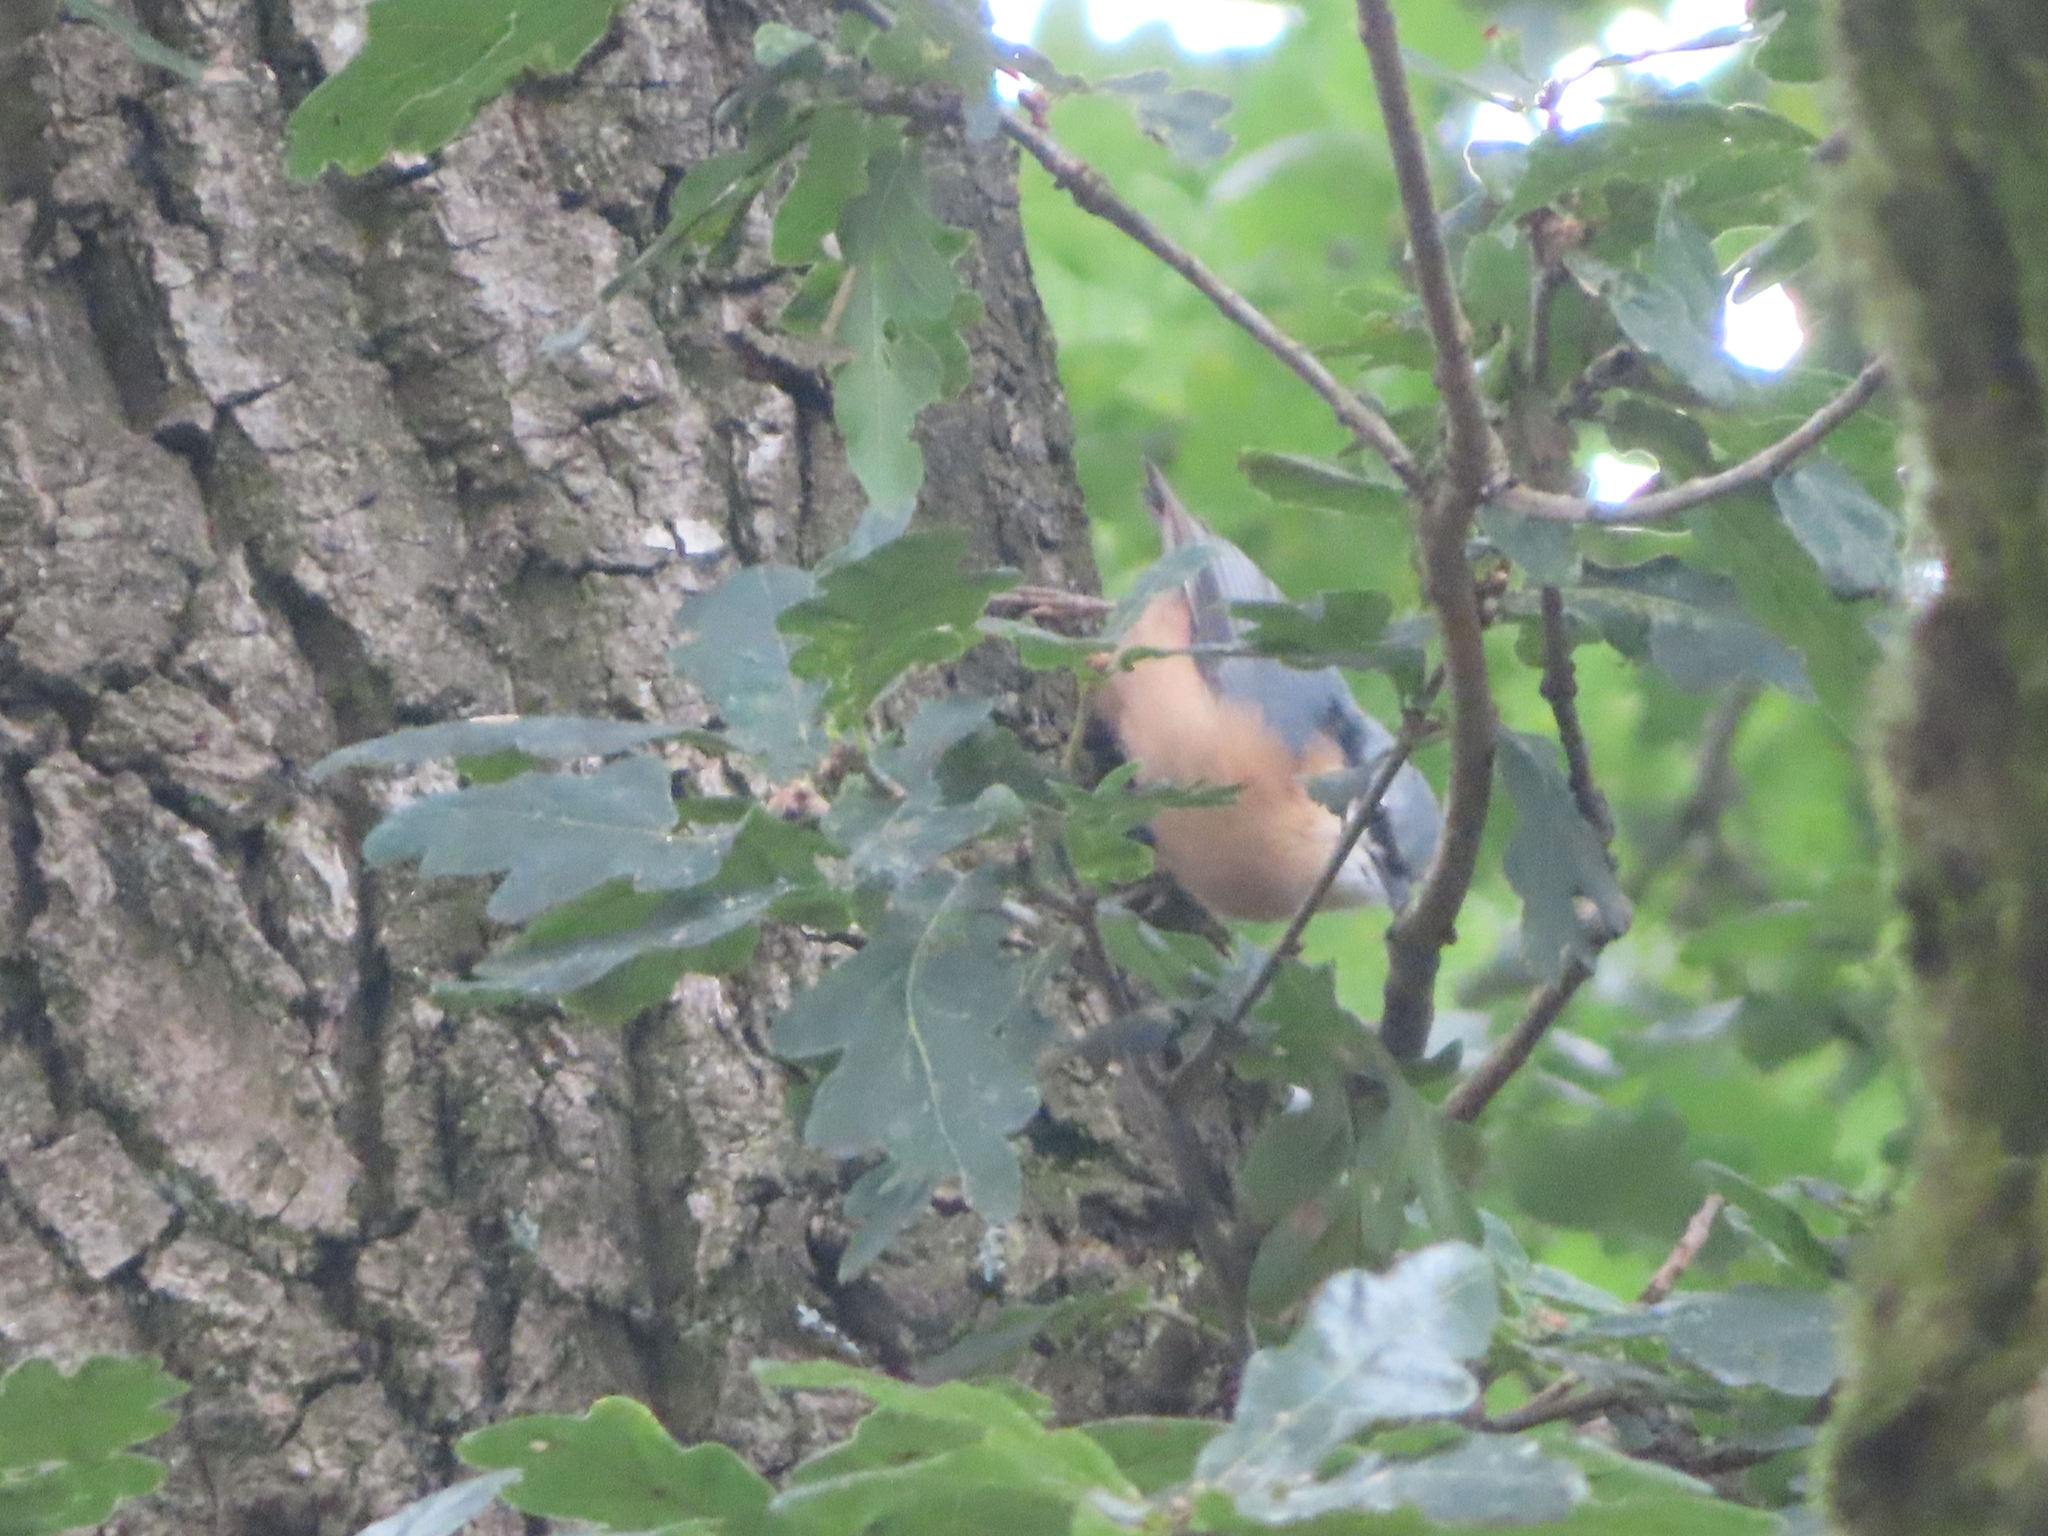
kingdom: Animalia
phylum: Chordata
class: Aves
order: Passeriformes
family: Sittidae
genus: Sitta
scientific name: Sitta europaea
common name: Eurasian nuthatch
